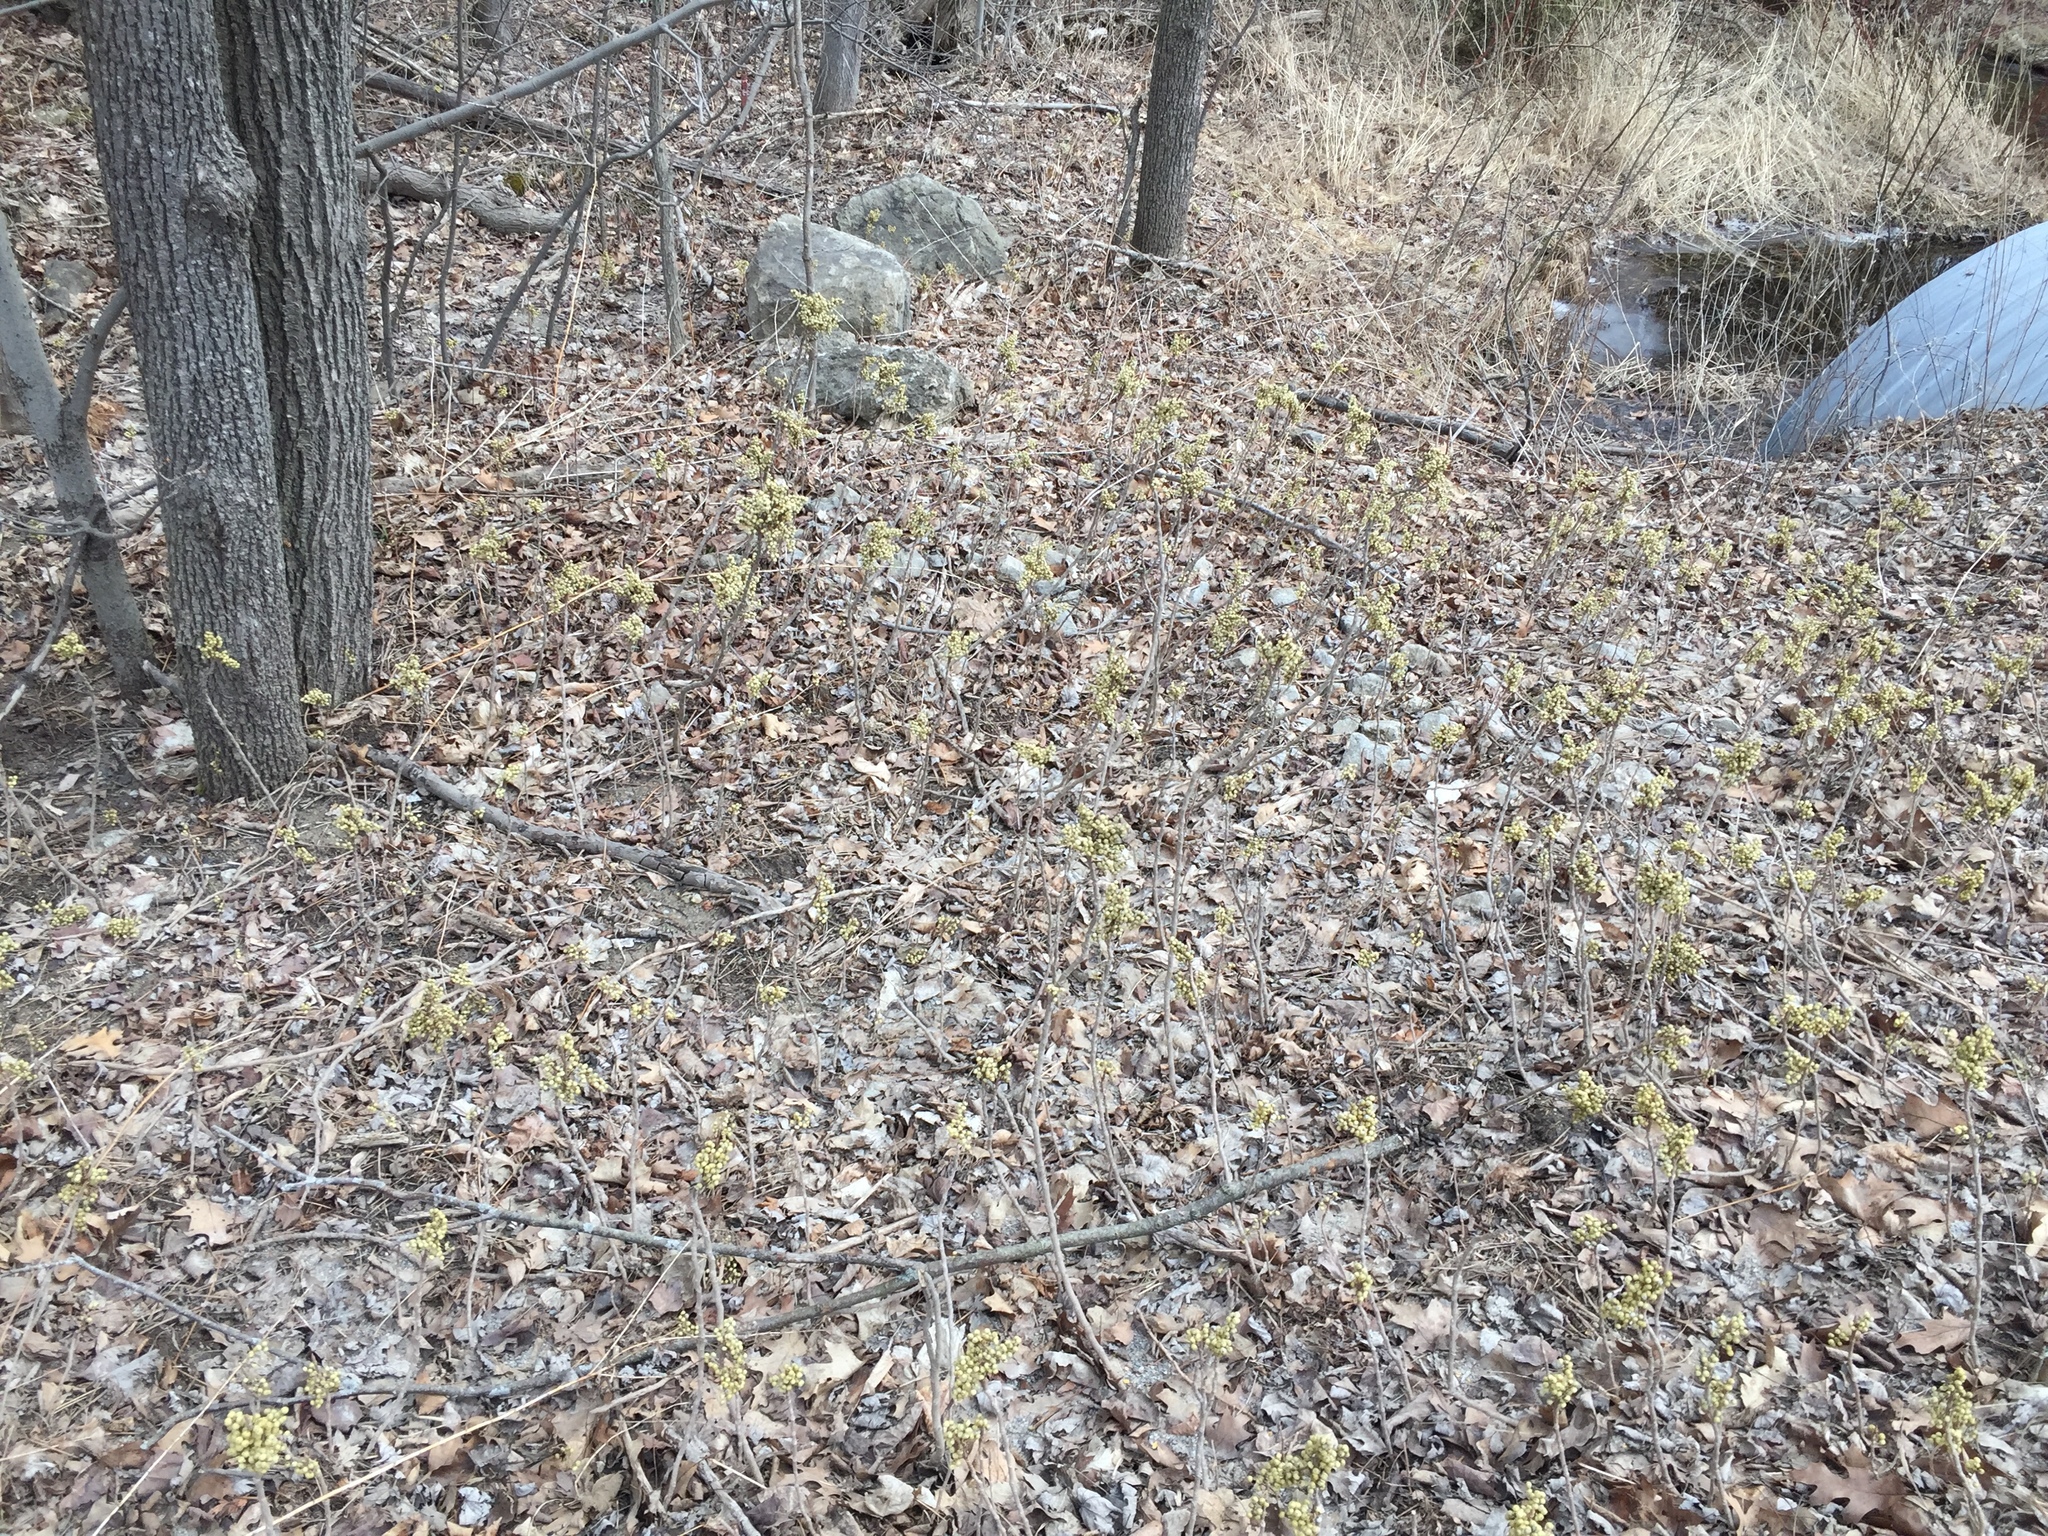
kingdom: Plantae
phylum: Tracheophyta
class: Magnoliopsida
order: Sapindales
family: Anacardiaceae
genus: Toxicodendron
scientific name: Toxicodendron rydbergii
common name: Rydberg's poison-ivy
